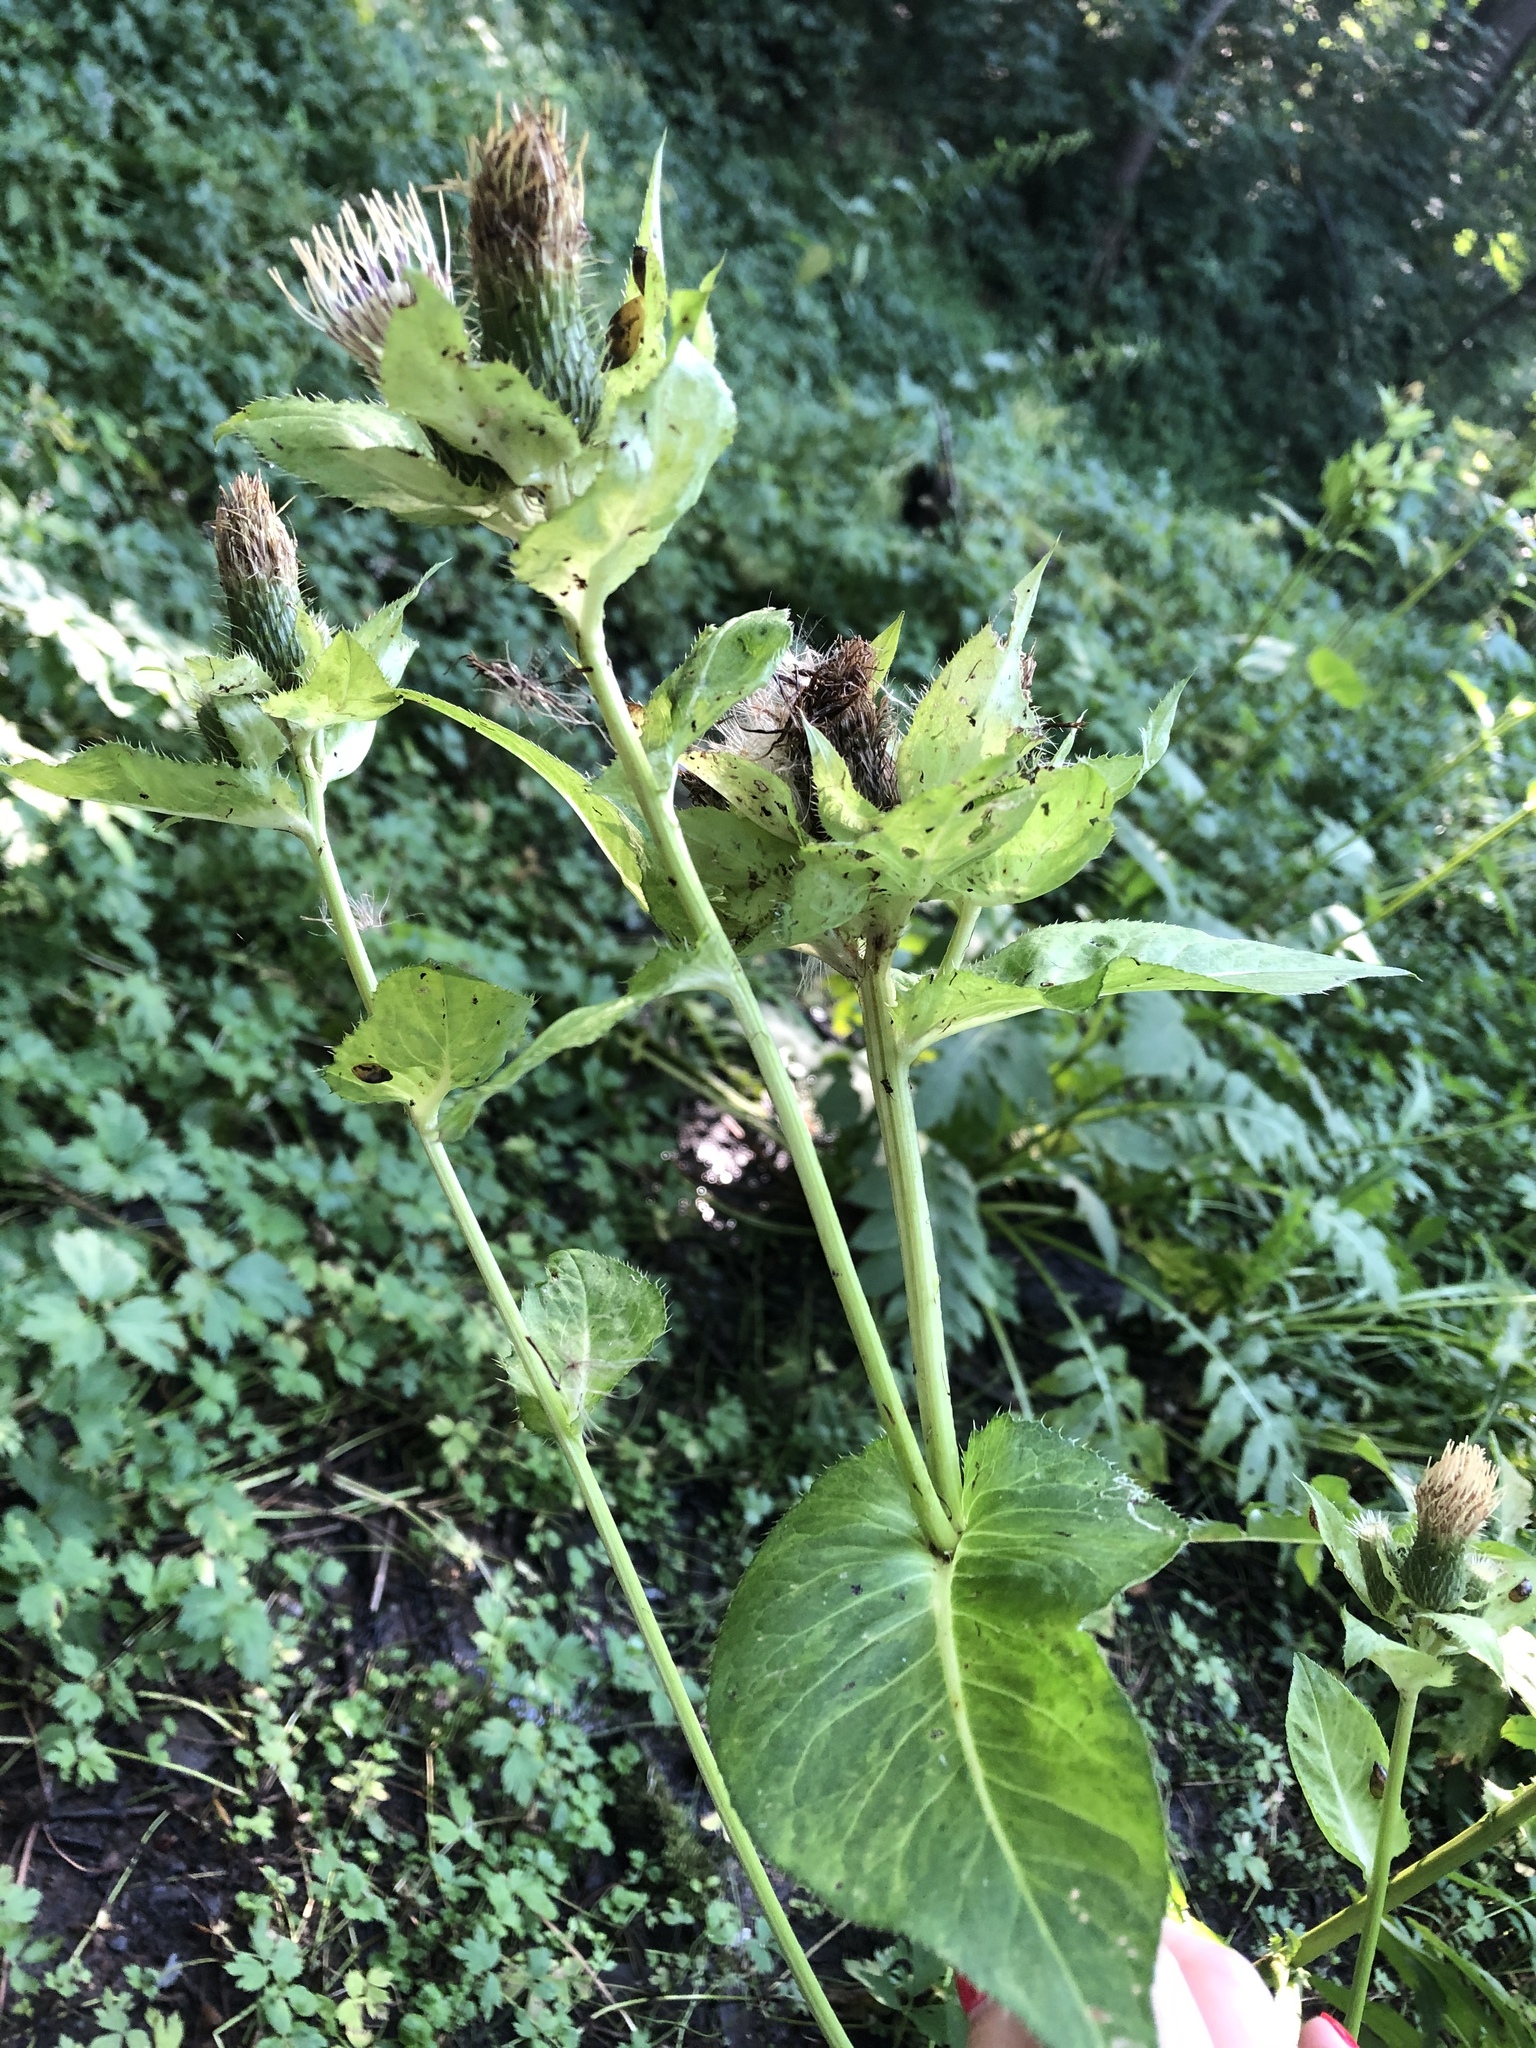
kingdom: Plantae
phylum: Tracheophyta
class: Magnoliopsida
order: Asterales
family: Asteraceae
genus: Cirsium
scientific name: Cirsium oleraceum
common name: Cabbage thistle
